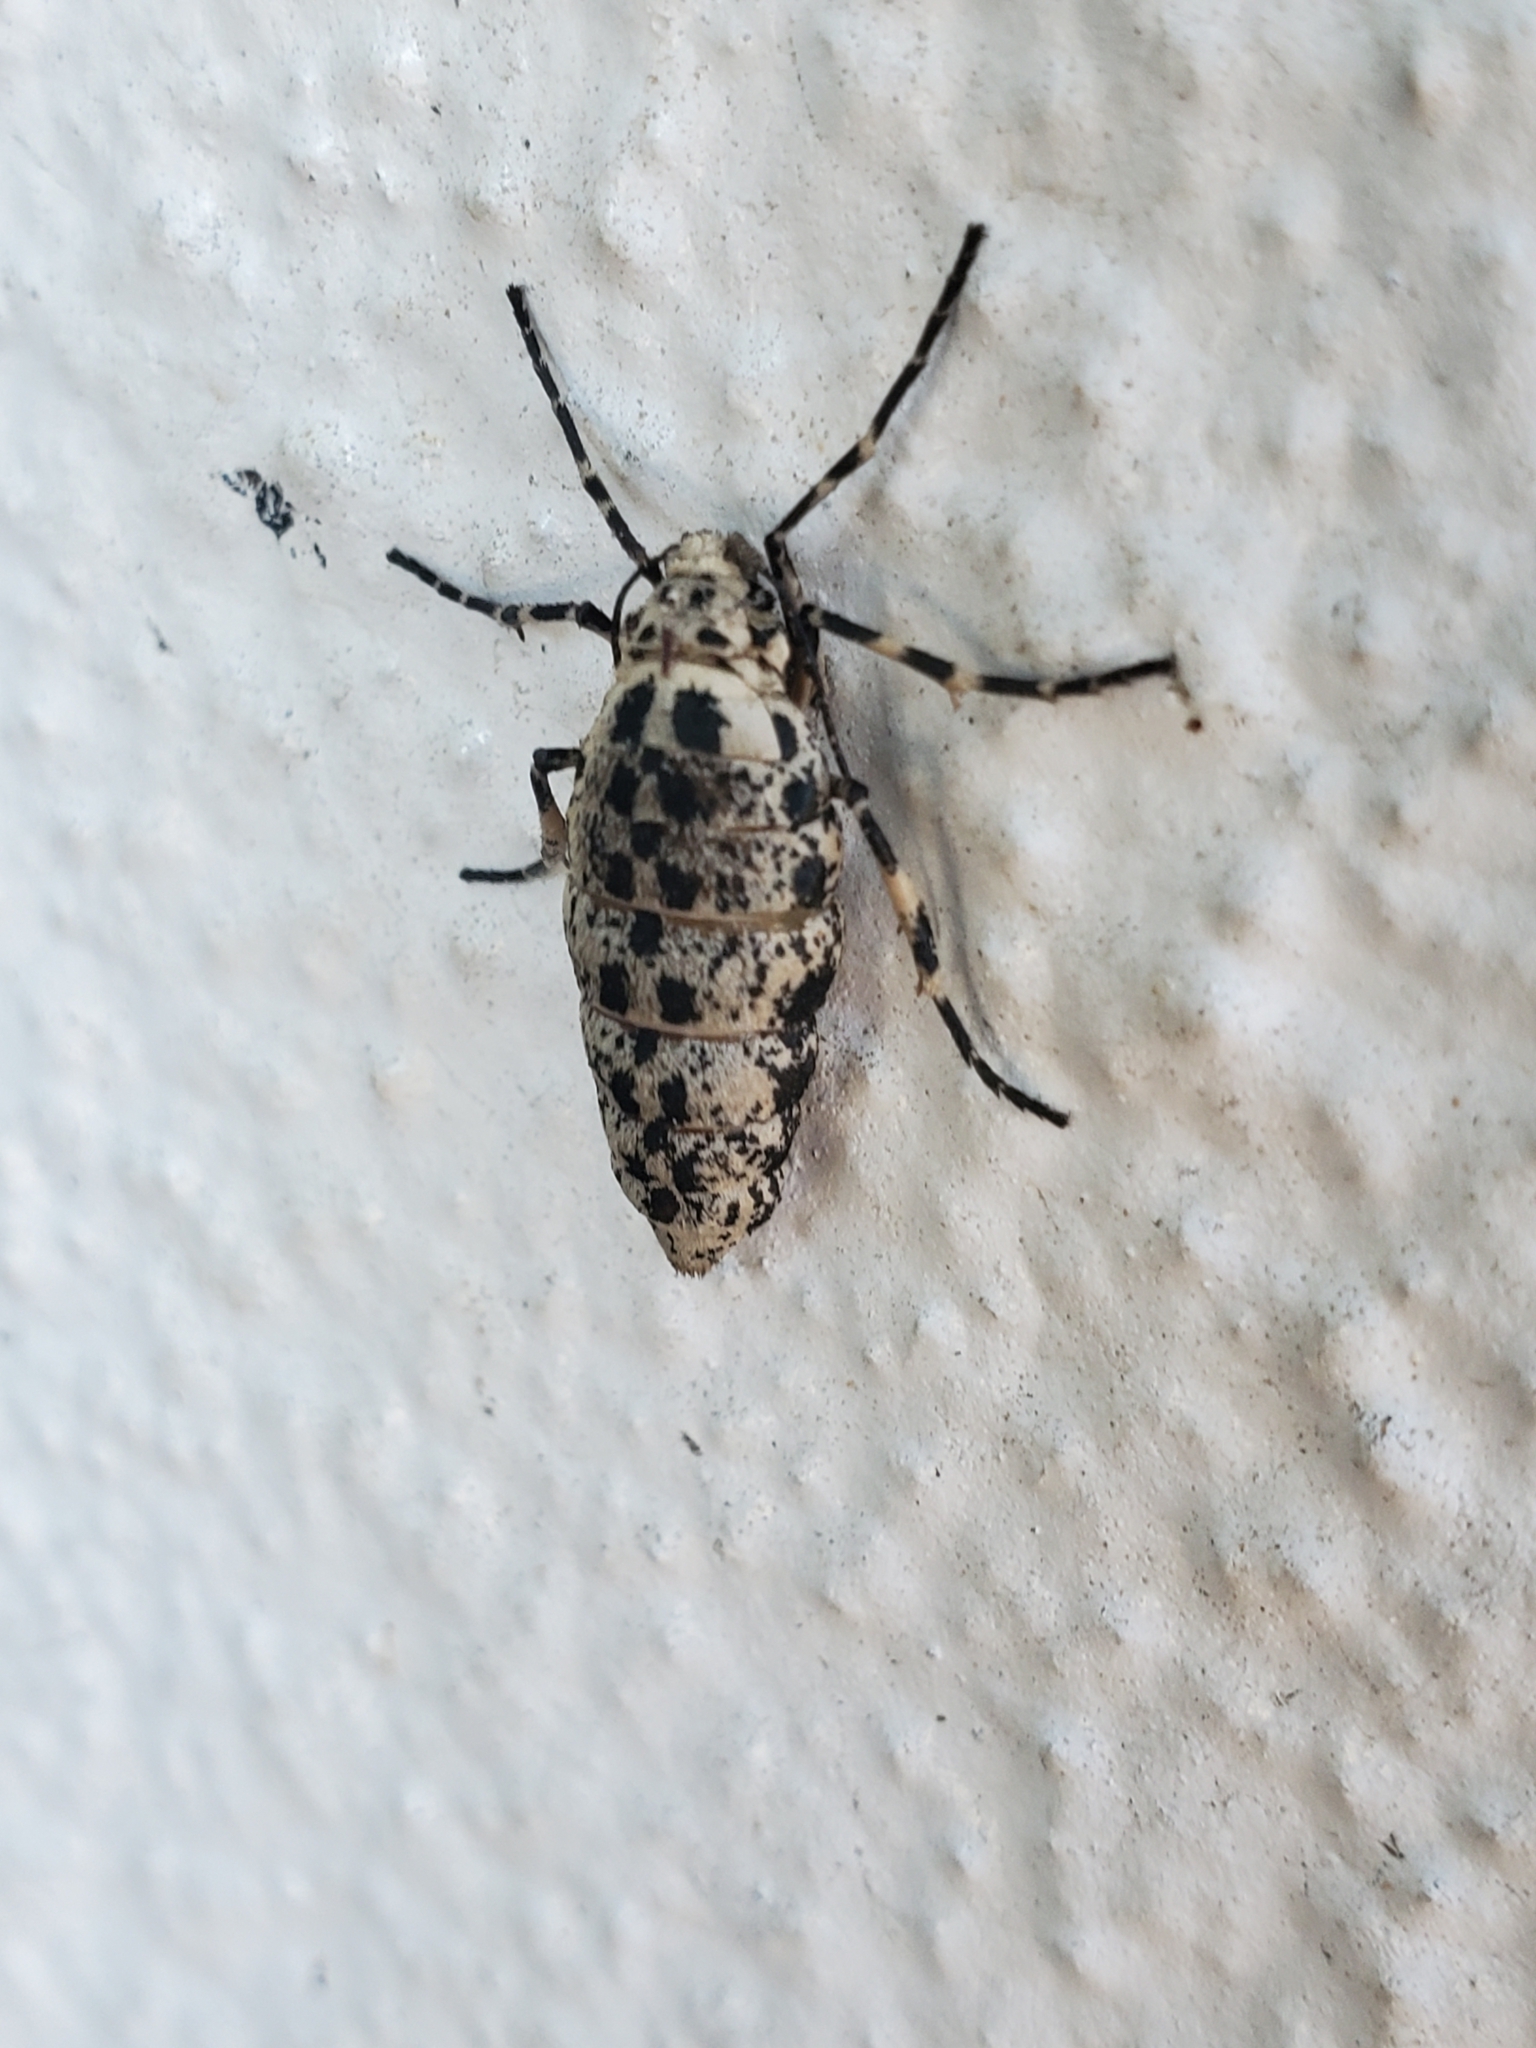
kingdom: Animalia
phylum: Arthropoda
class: Insecta
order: Lepidoptera
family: Geometridae
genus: Erannis
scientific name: Erannis tiliaria
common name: Linden looper
